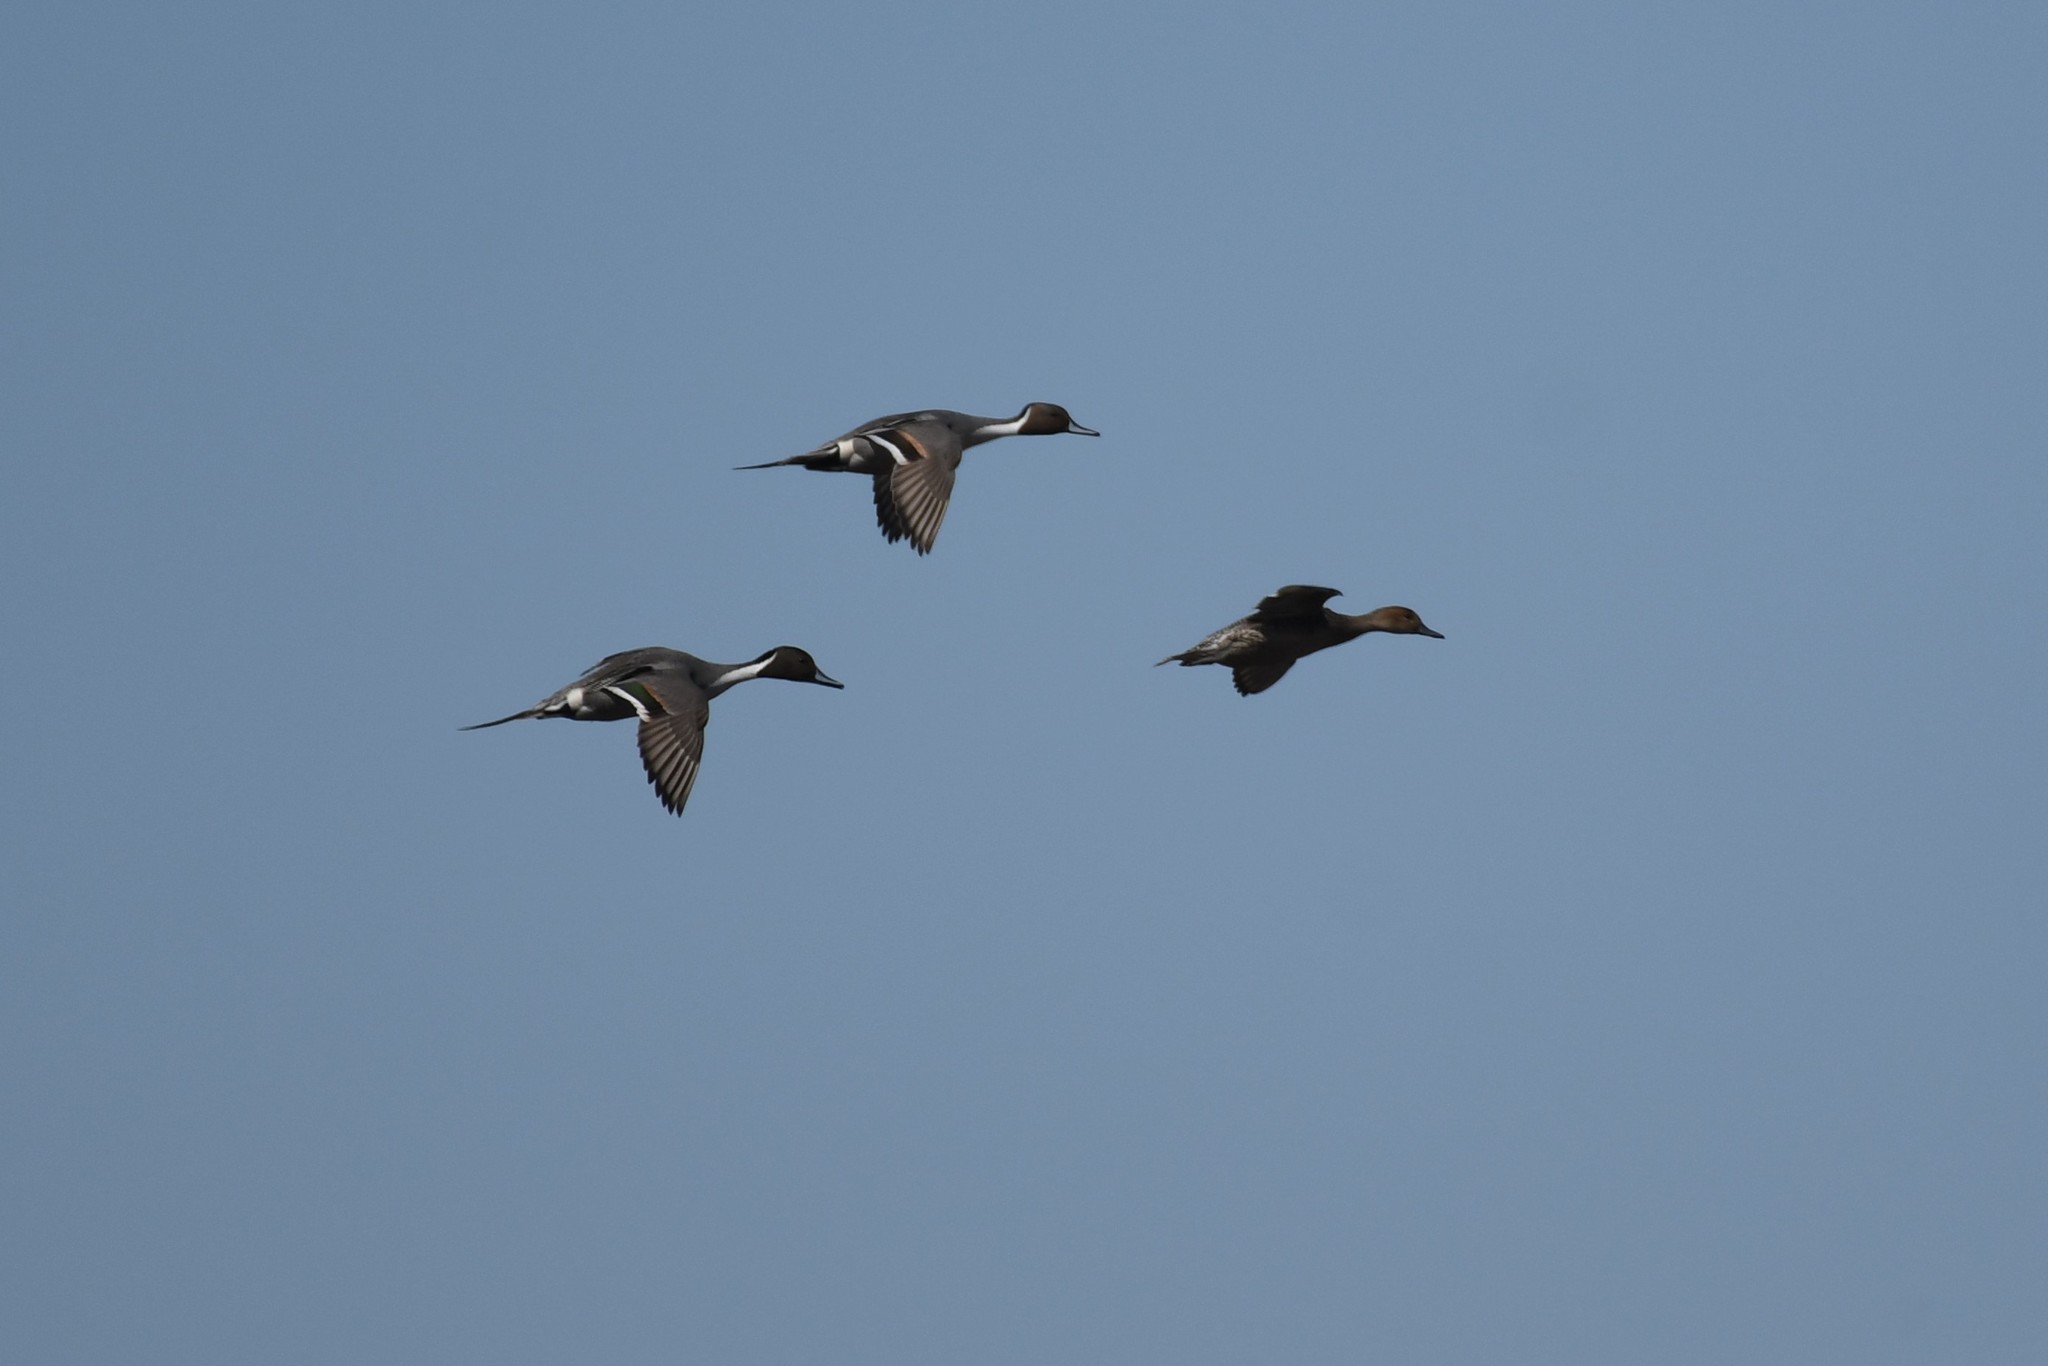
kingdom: Animalia
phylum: Chordata
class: Aves
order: Anseriformes
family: Anatidae
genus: Anas
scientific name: Anas acuta
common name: Northern pintail
